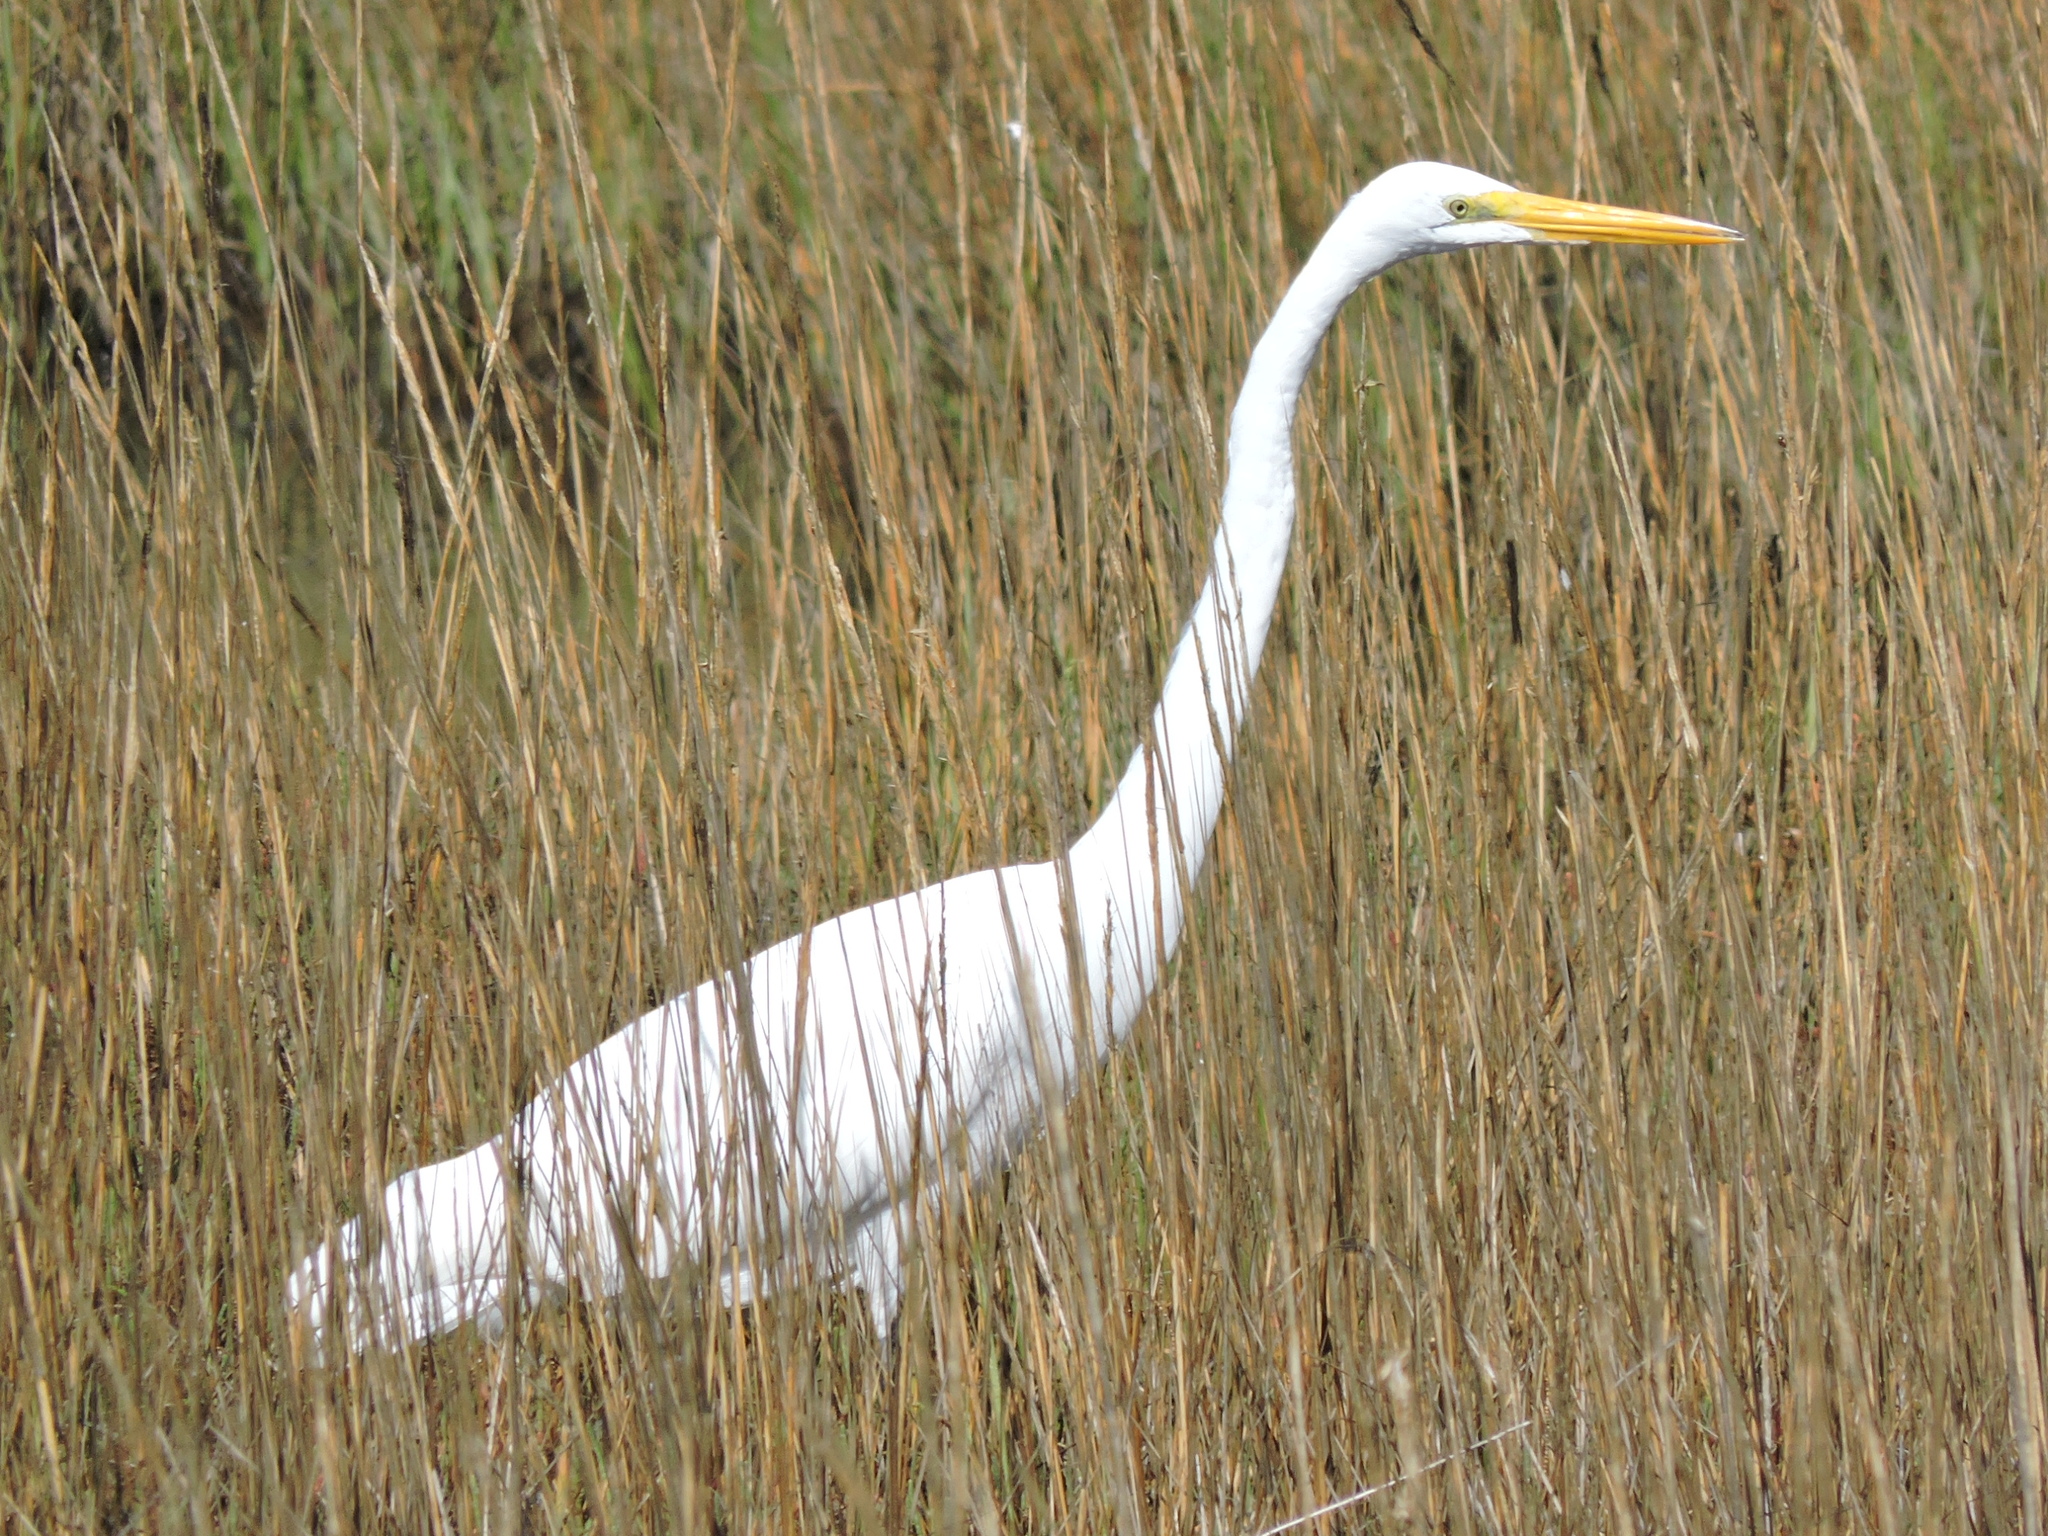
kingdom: Animalia
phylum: Chordata
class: Aves
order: Pelecaniformes
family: Ardeidae
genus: Ardea
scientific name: Ardea alba
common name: Great egret
